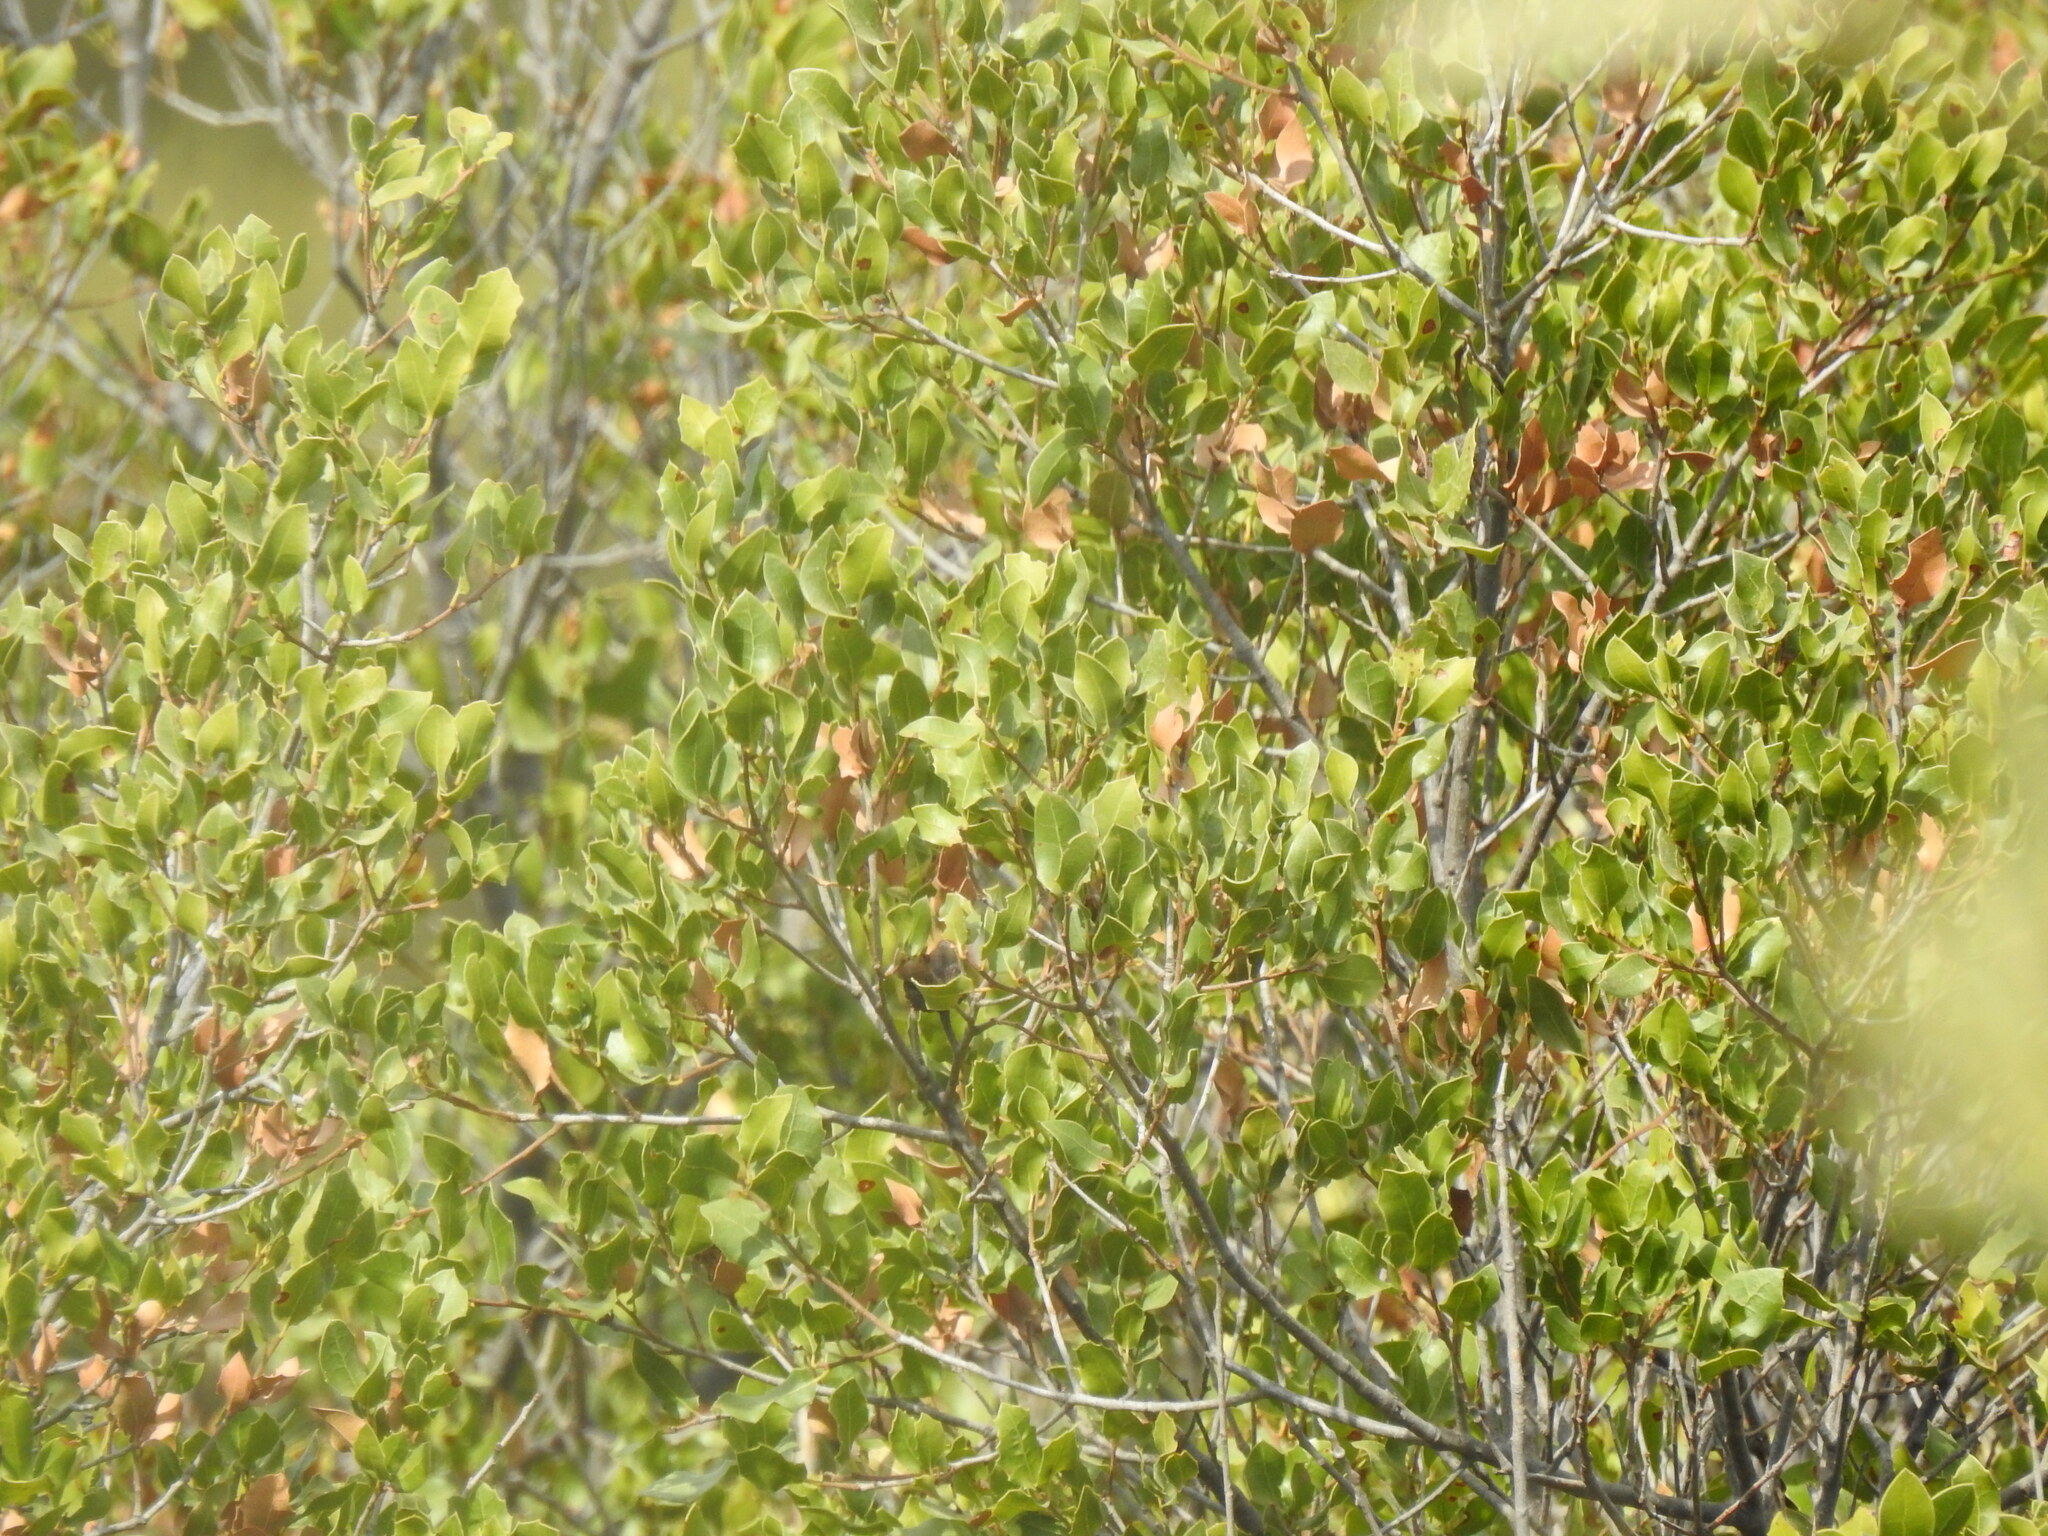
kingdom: Plantae
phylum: Tracheophyta
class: Magnoliopsida
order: Fagales
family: Fagaceae
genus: Quercus
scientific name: Quercus coccifera
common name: Kermes oak
